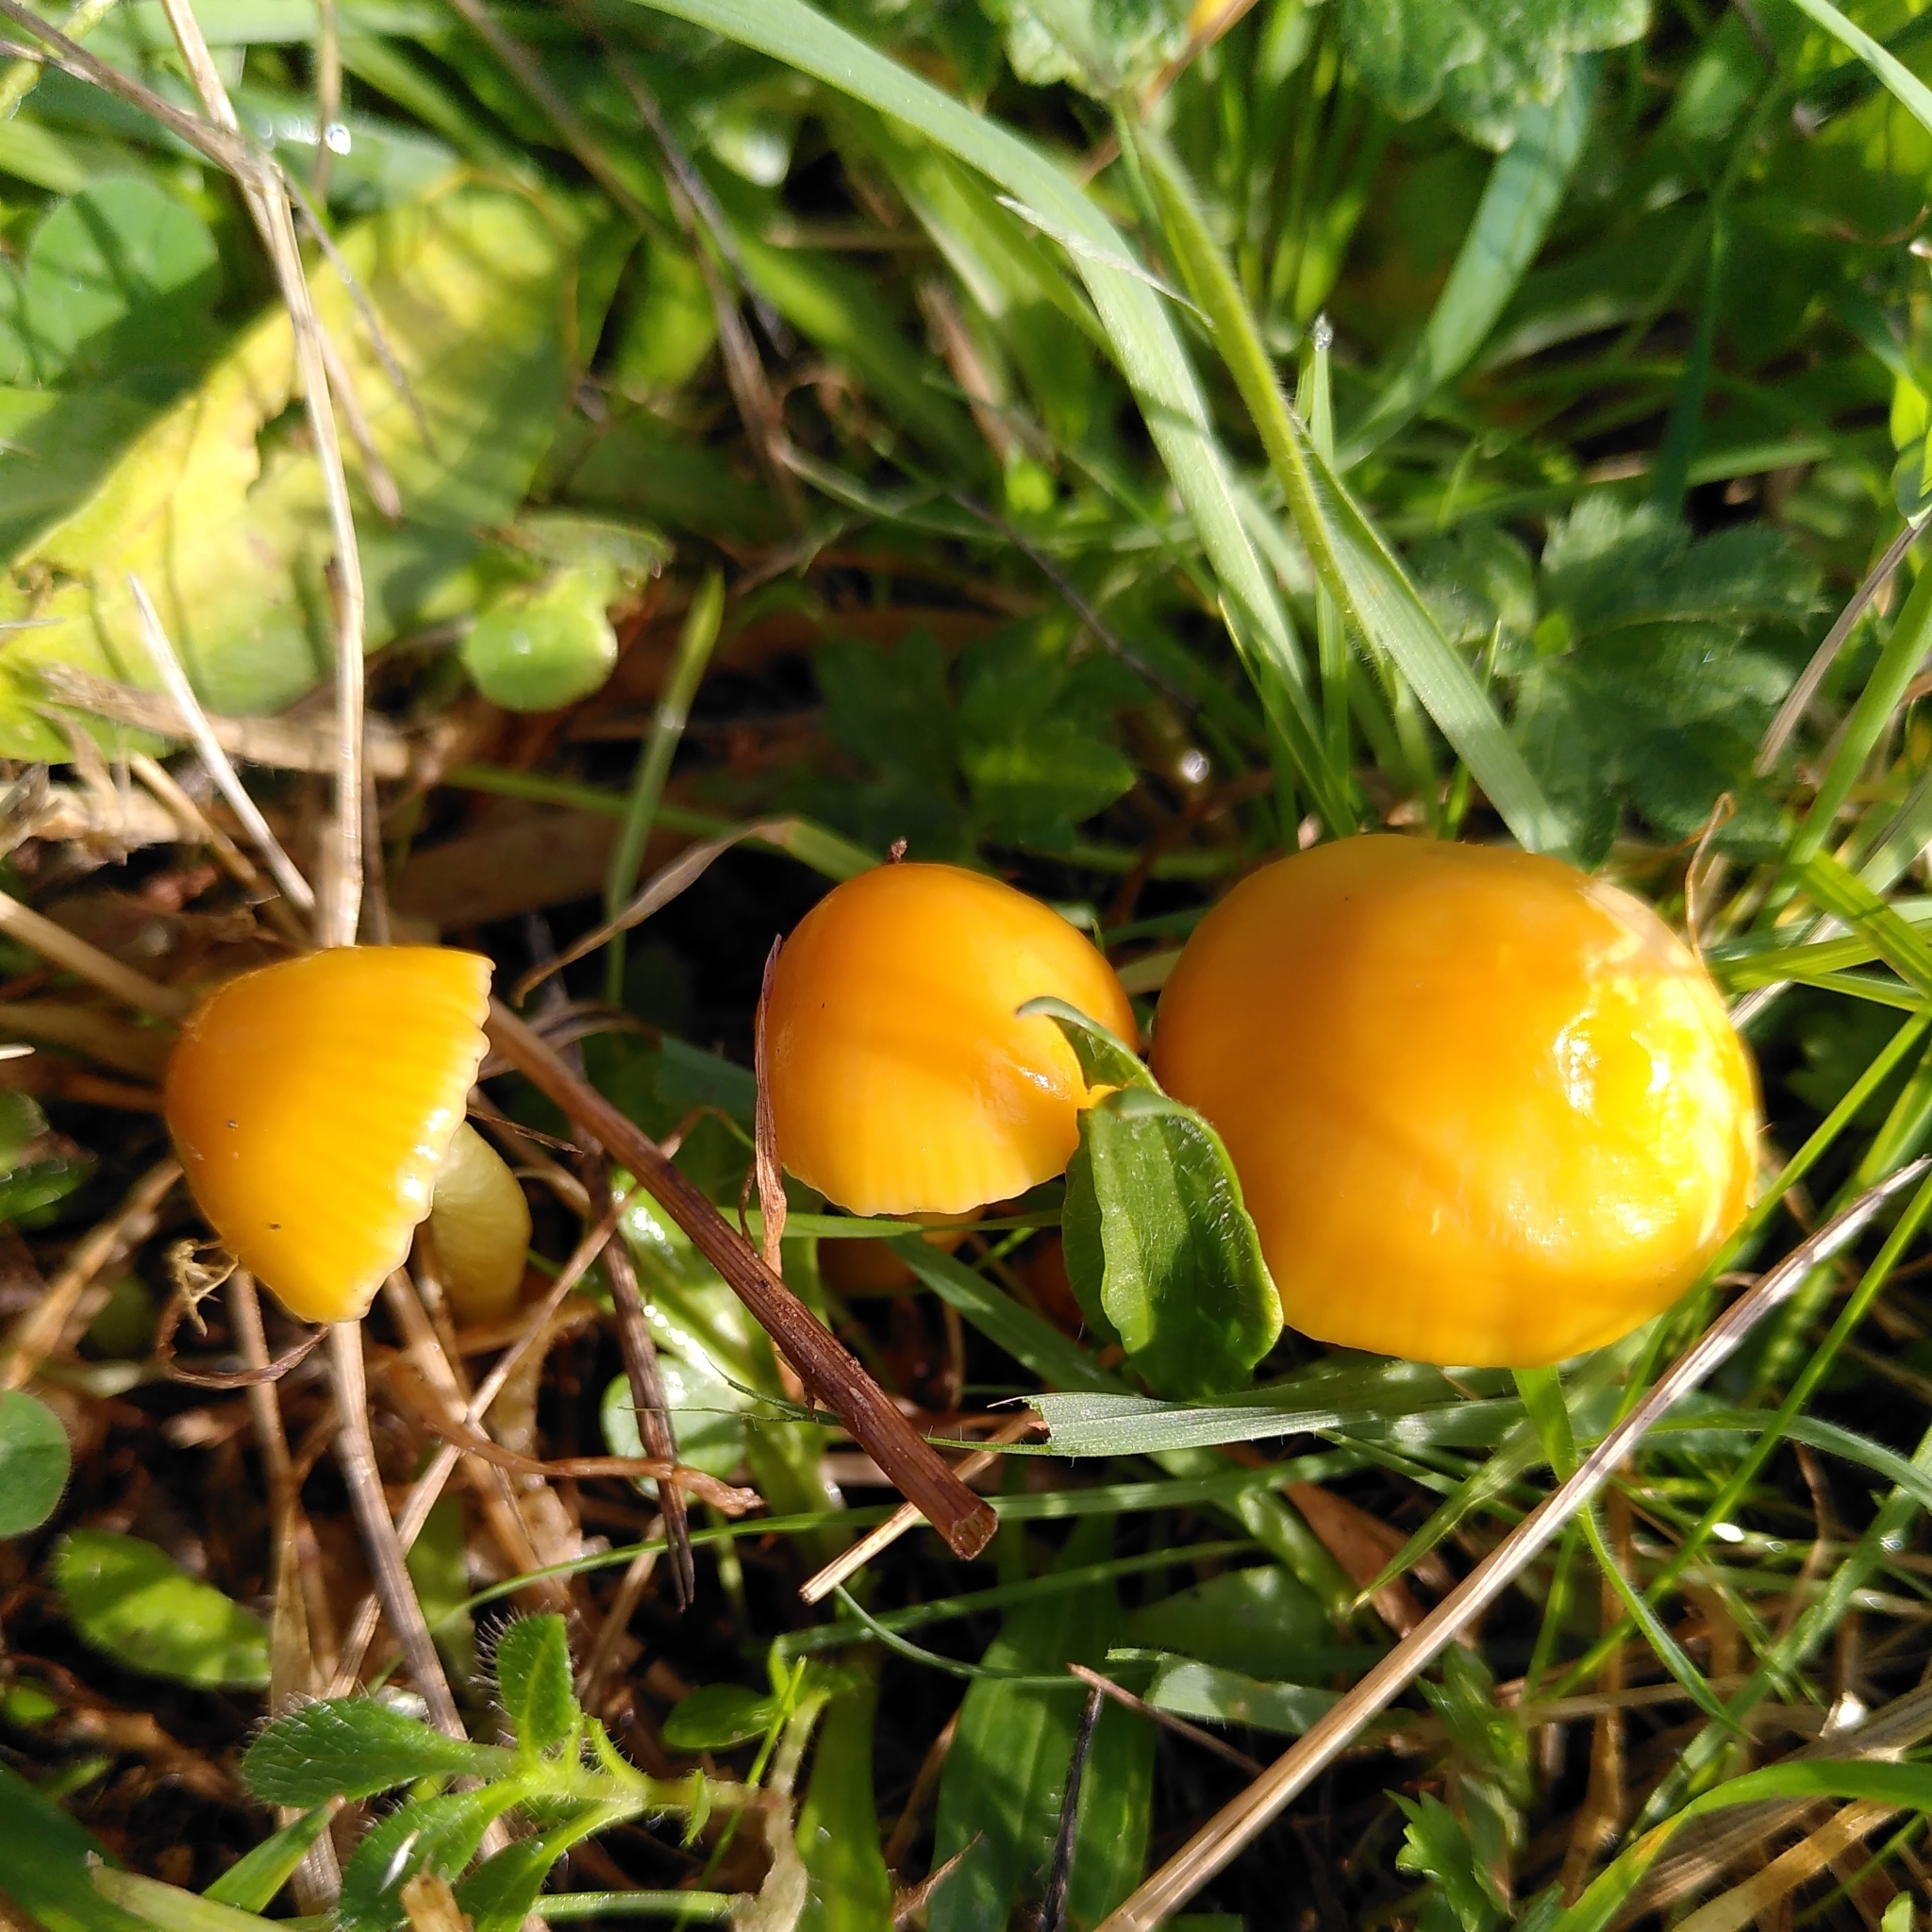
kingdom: Fungi
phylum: Basidiomycota
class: Agaricomycetes
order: Agaricales
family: Hygrophoraceae
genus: Gliophorus
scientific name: Gliophorus psittacinus
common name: Parrot wax-cap
